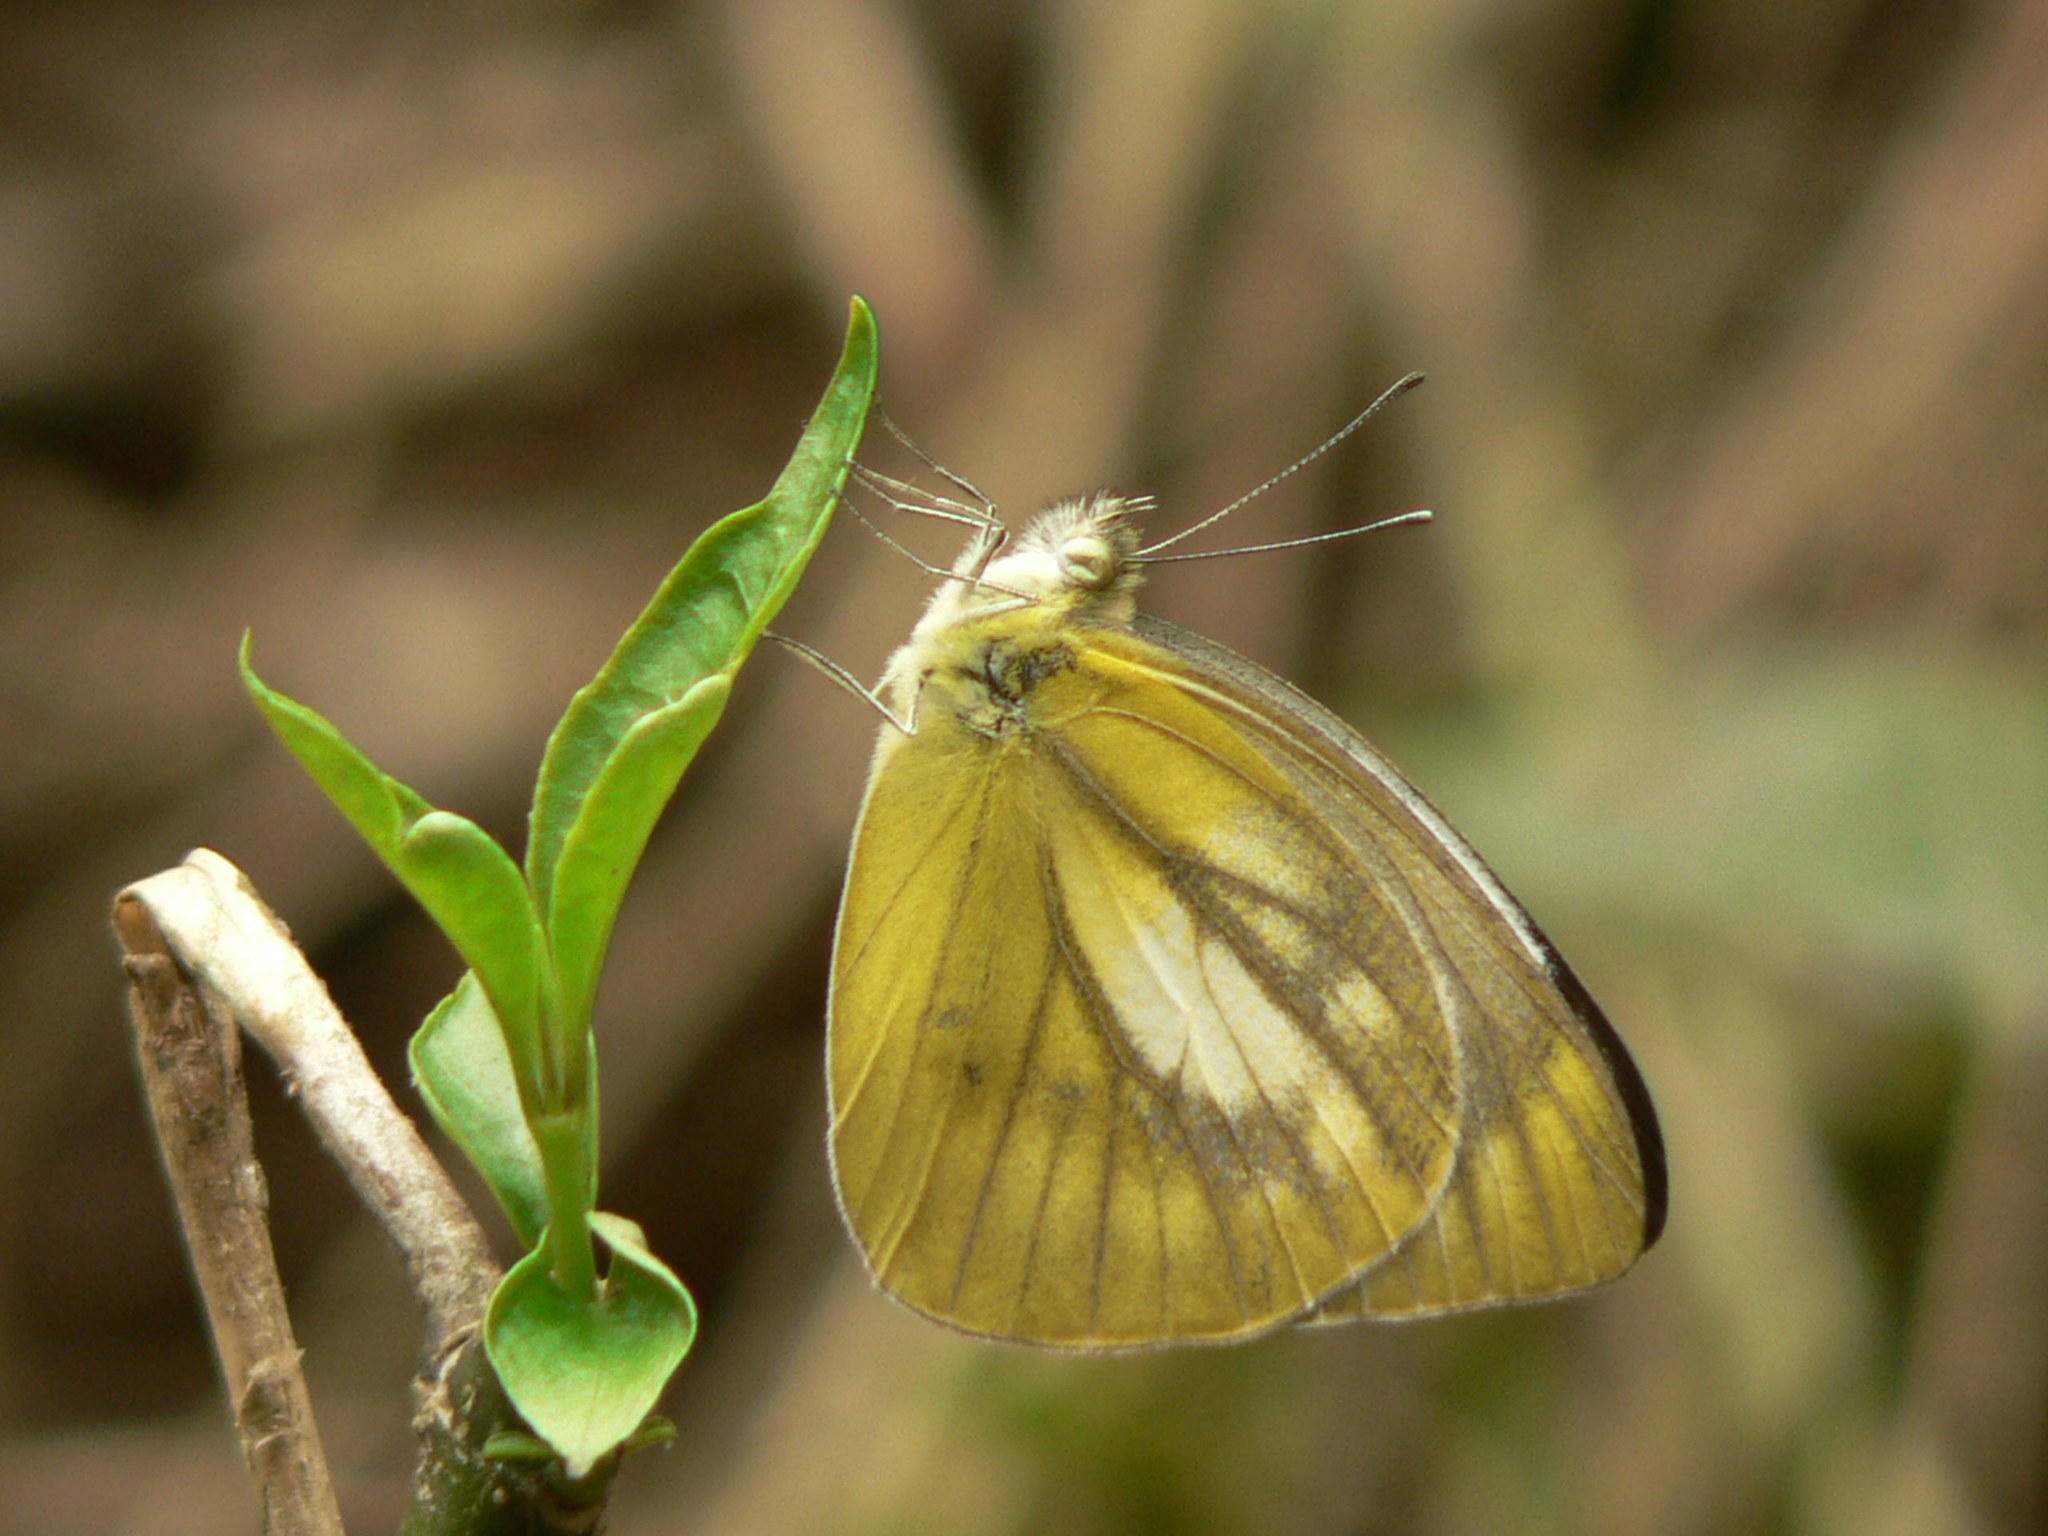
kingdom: Animalia
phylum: Arthropoda
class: Insecta
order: Lepidoptera
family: Pieridae
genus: Cepora
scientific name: Cepora nadina
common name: Lesser gull
